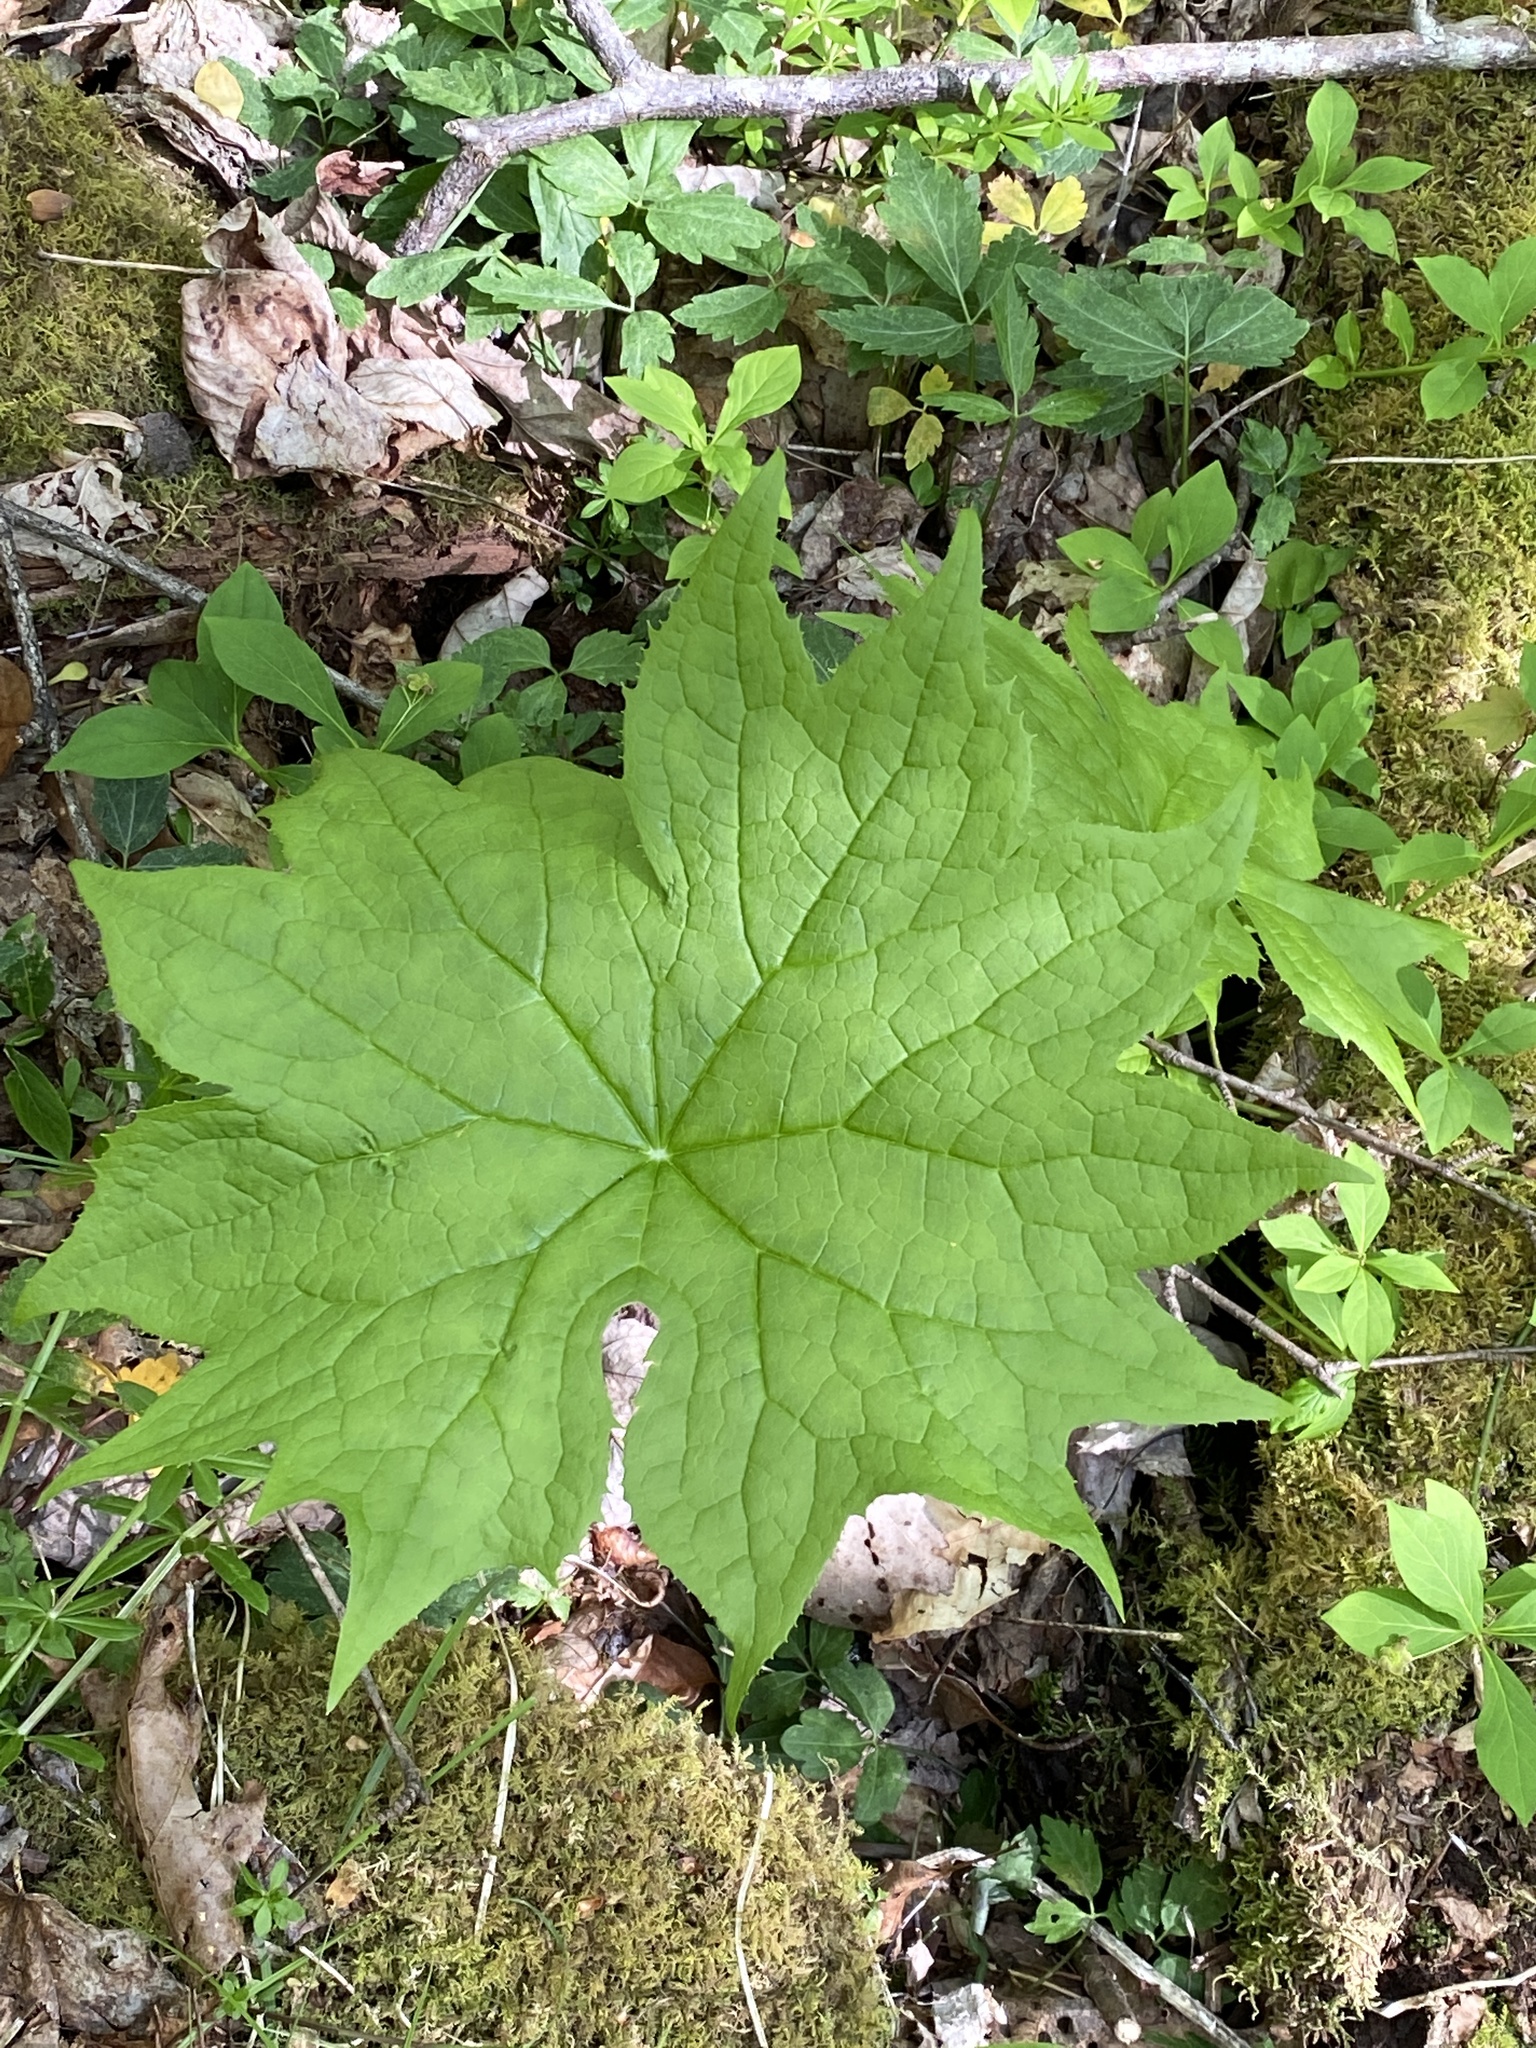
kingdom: Plantae
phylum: Tracheophyta
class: Magnoliopsida
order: Ranunculales
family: Berberidaceae
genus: Diphylleia
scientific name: Diphylleia cymosa
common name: Umbrella-leaf
